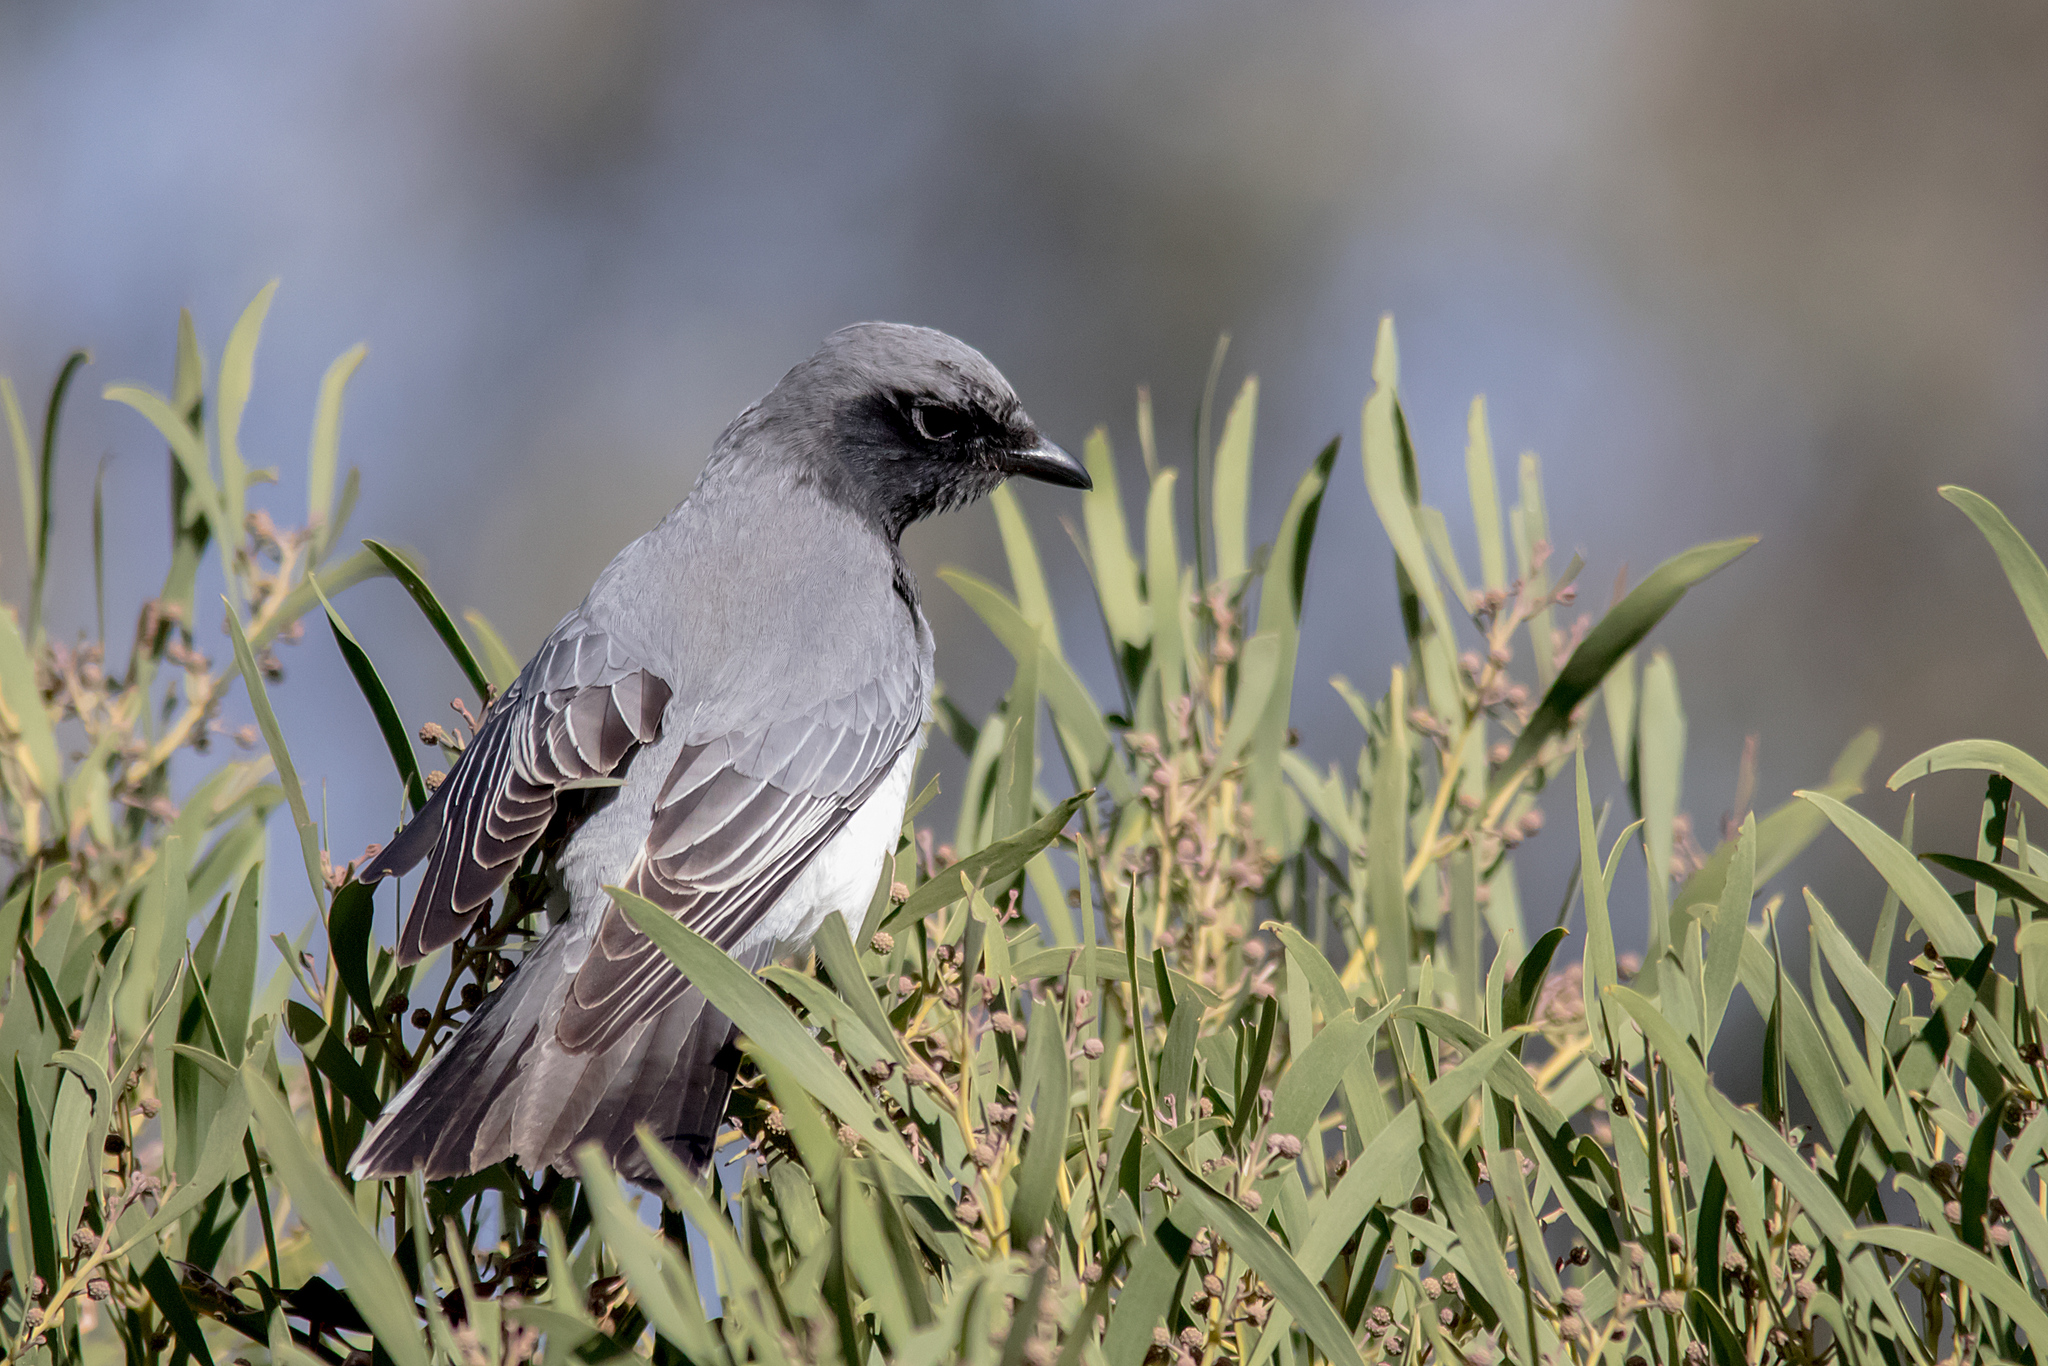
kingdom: Animalia
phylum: Chordata
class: Aves
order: Passeriformes
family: Campephagidae
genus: Coracina
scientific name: Coracina papuensis
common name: White-bellied cuckooshrike
